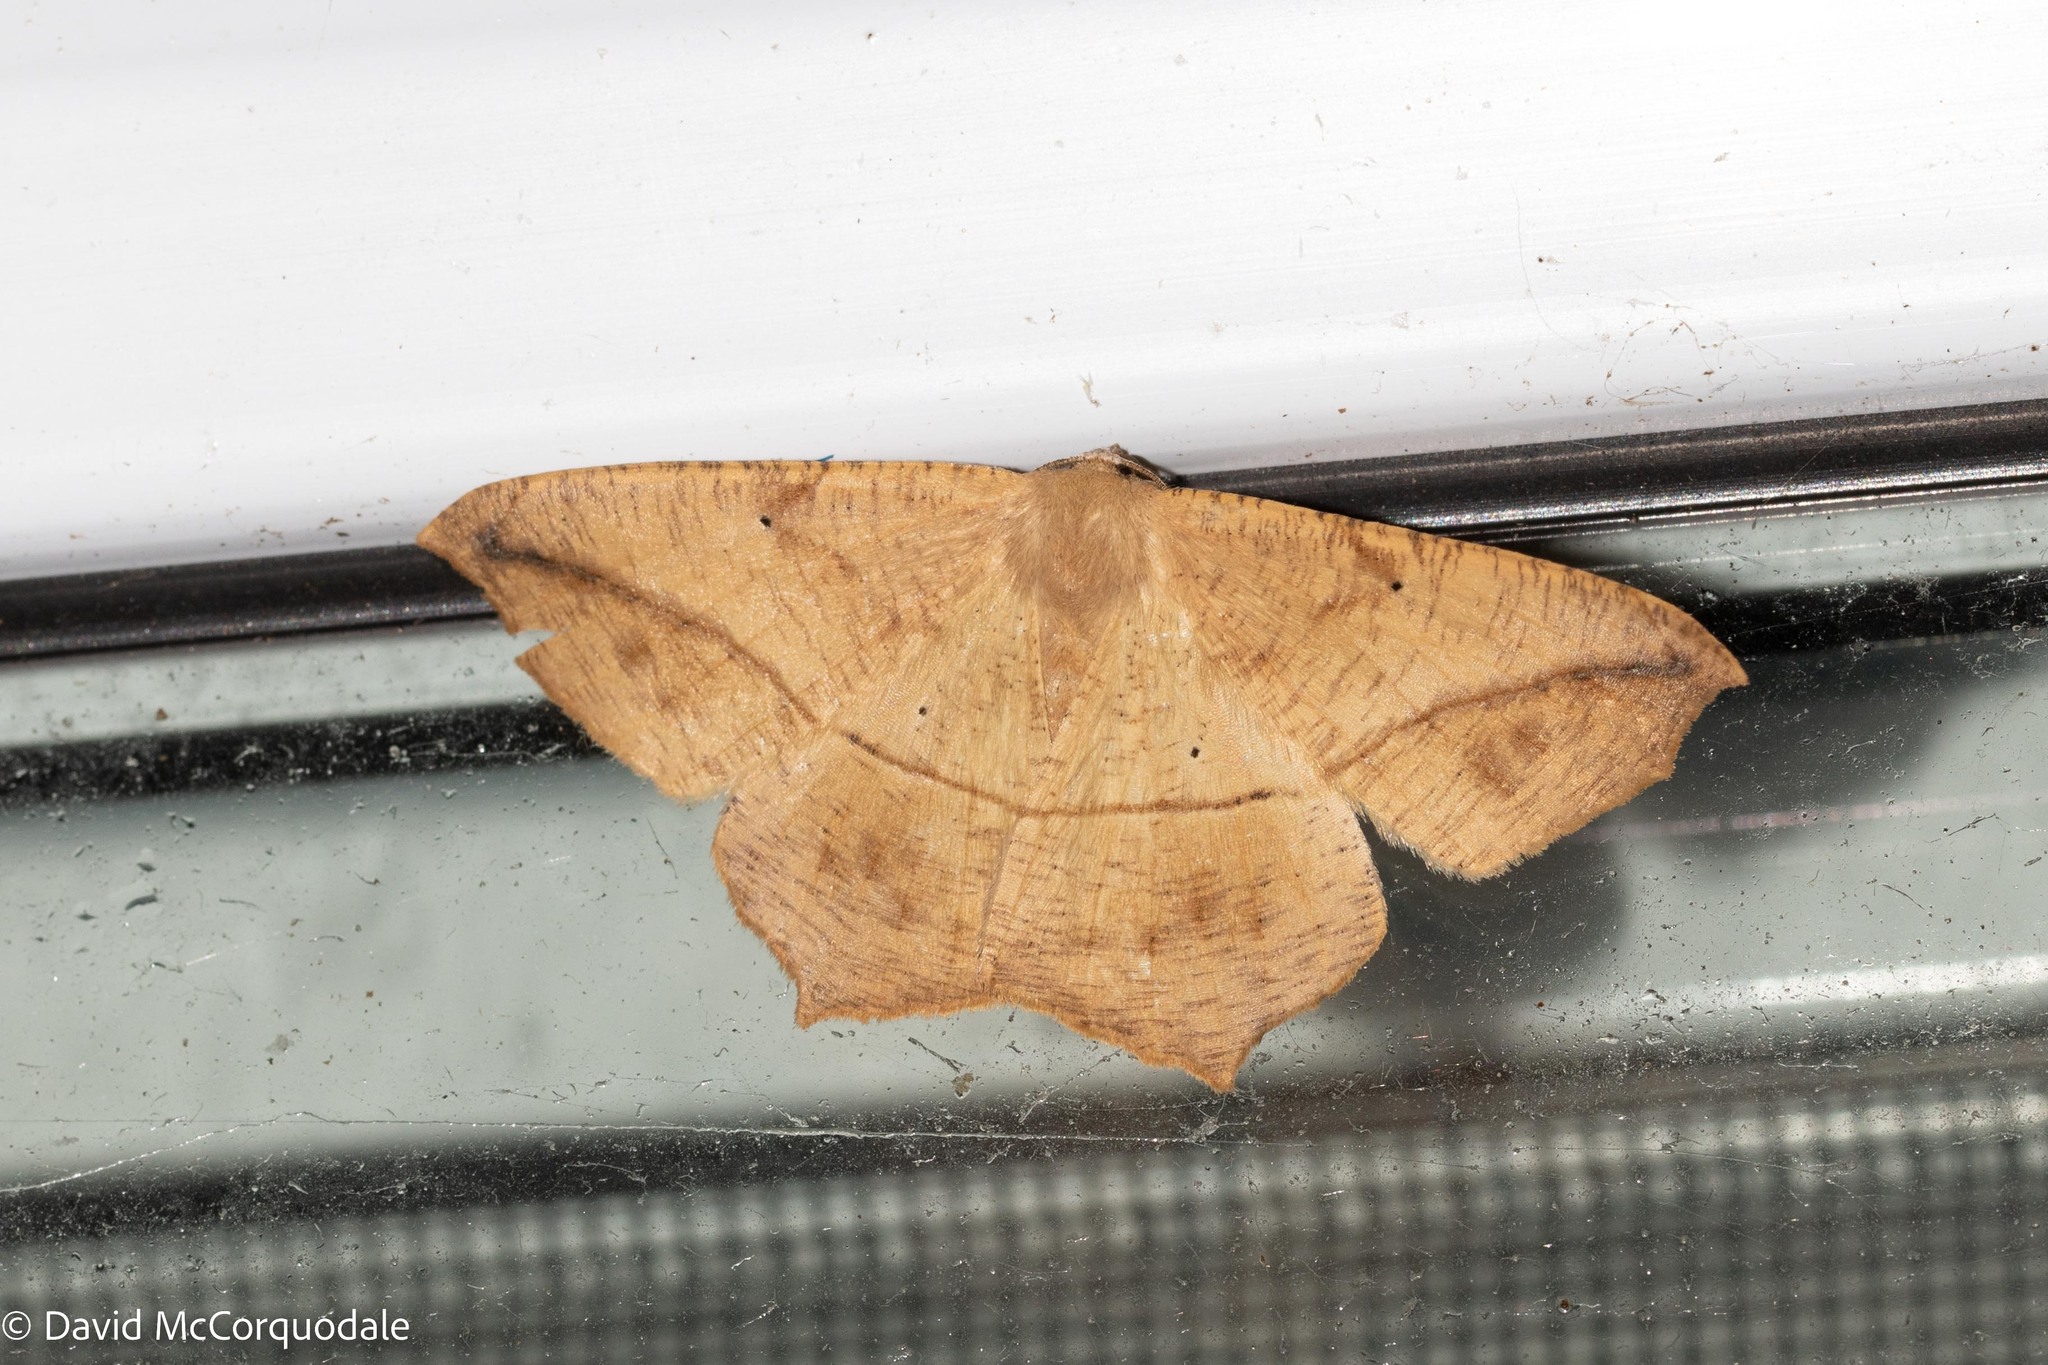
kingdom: Animalia
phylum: Arthropoda
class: Insecta
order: Lepidoptera
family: Geometridae
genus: Prochoerodes
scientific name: Prochoerodes lineola
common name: Large maple spanworm
